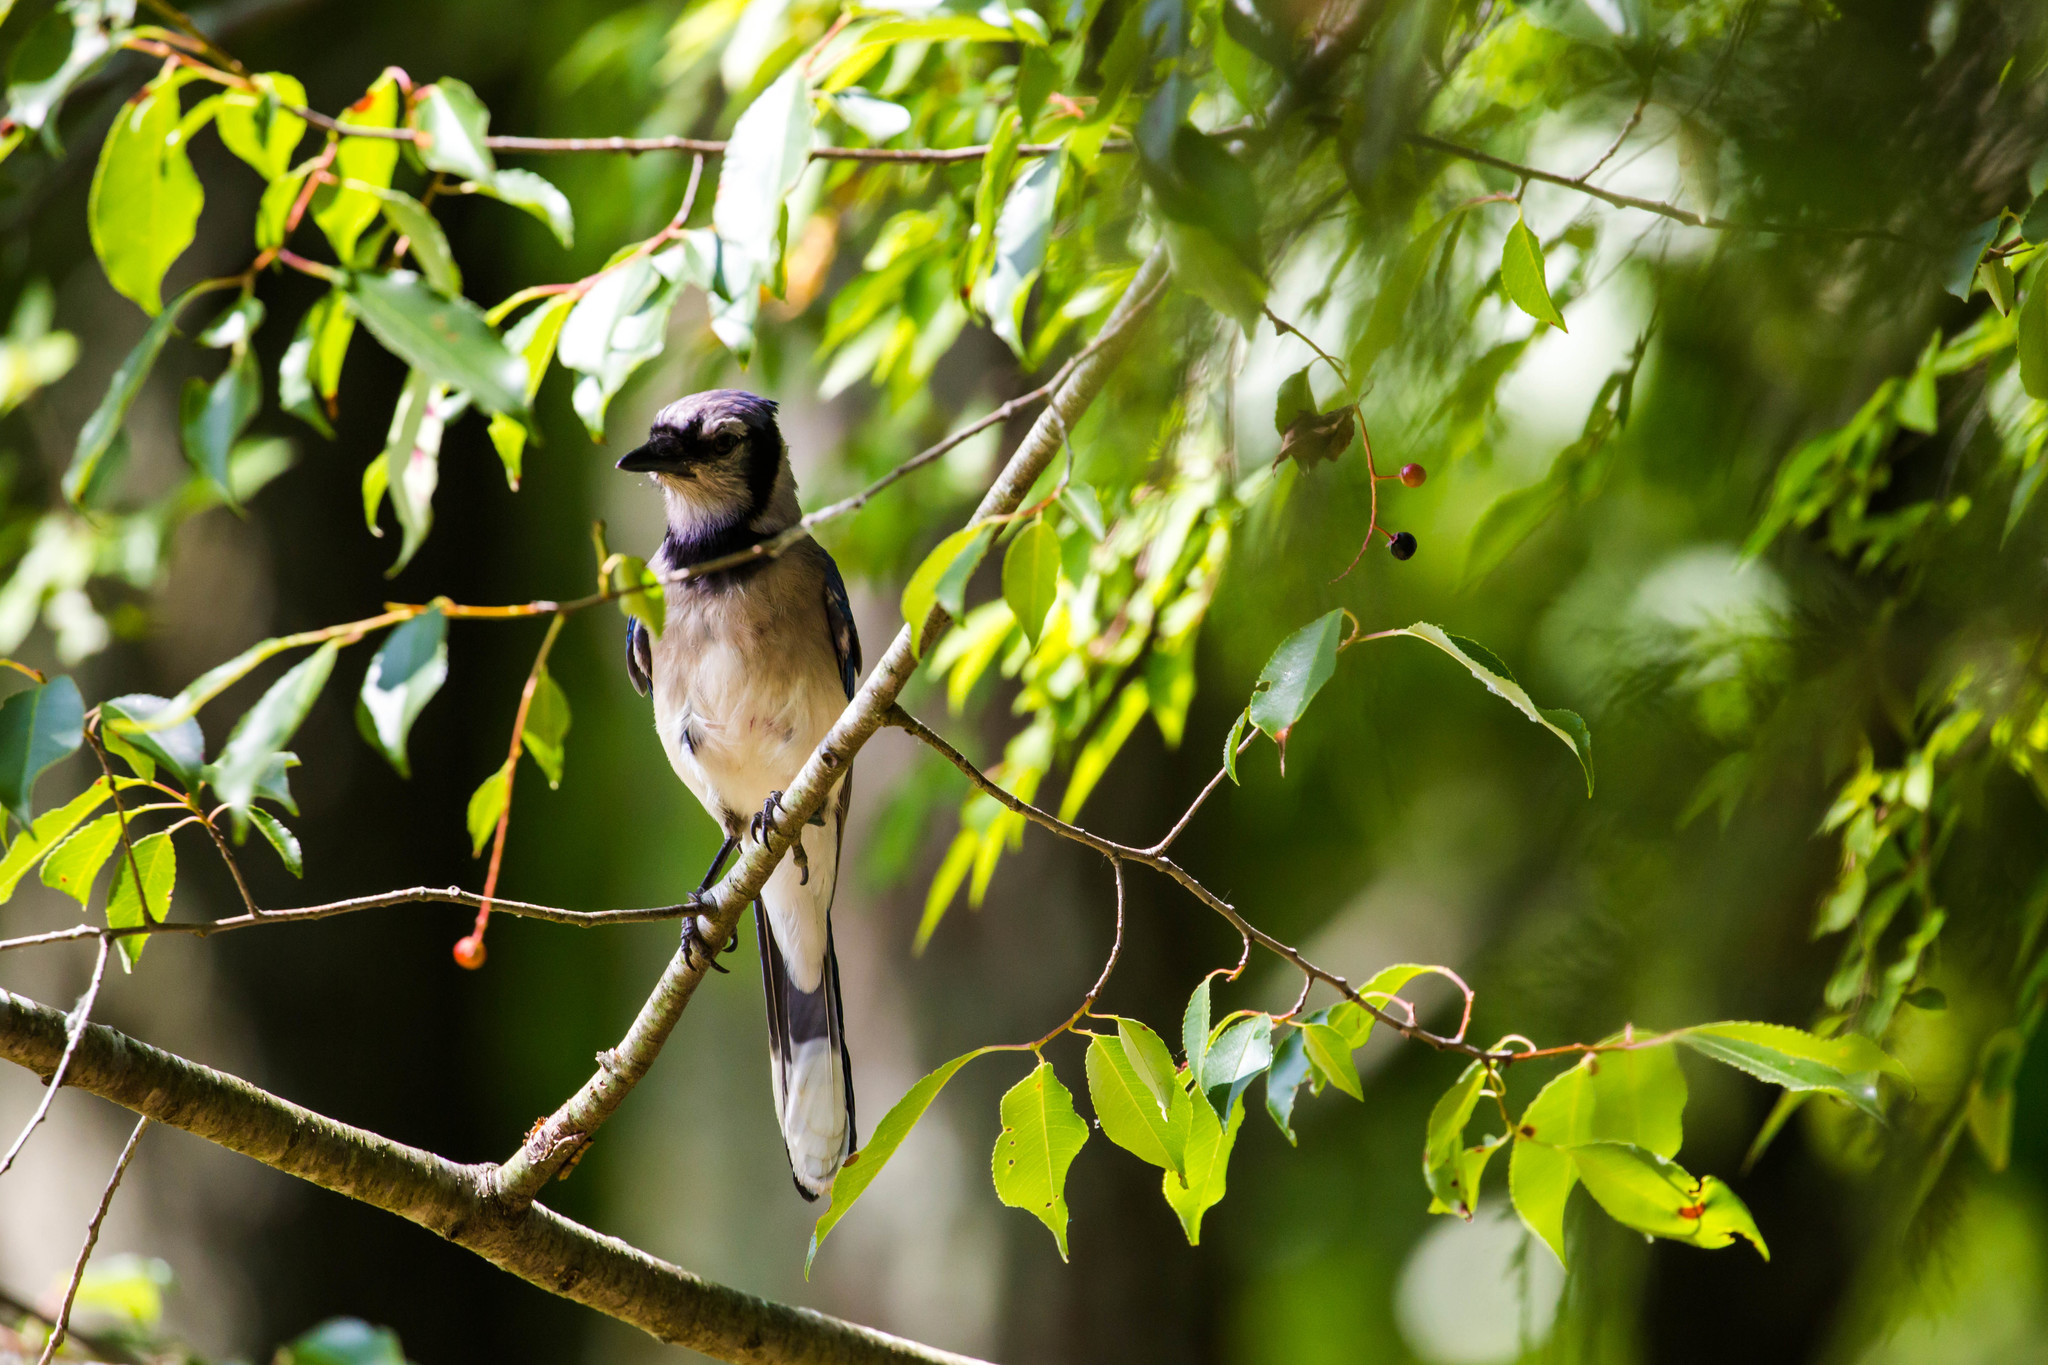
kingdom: Animalia
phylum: Chordata
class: Aves
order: Passeriformes
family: Corvidae
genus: Cyanocitta
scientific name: Cyanocitta cristata
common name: Blue jay
